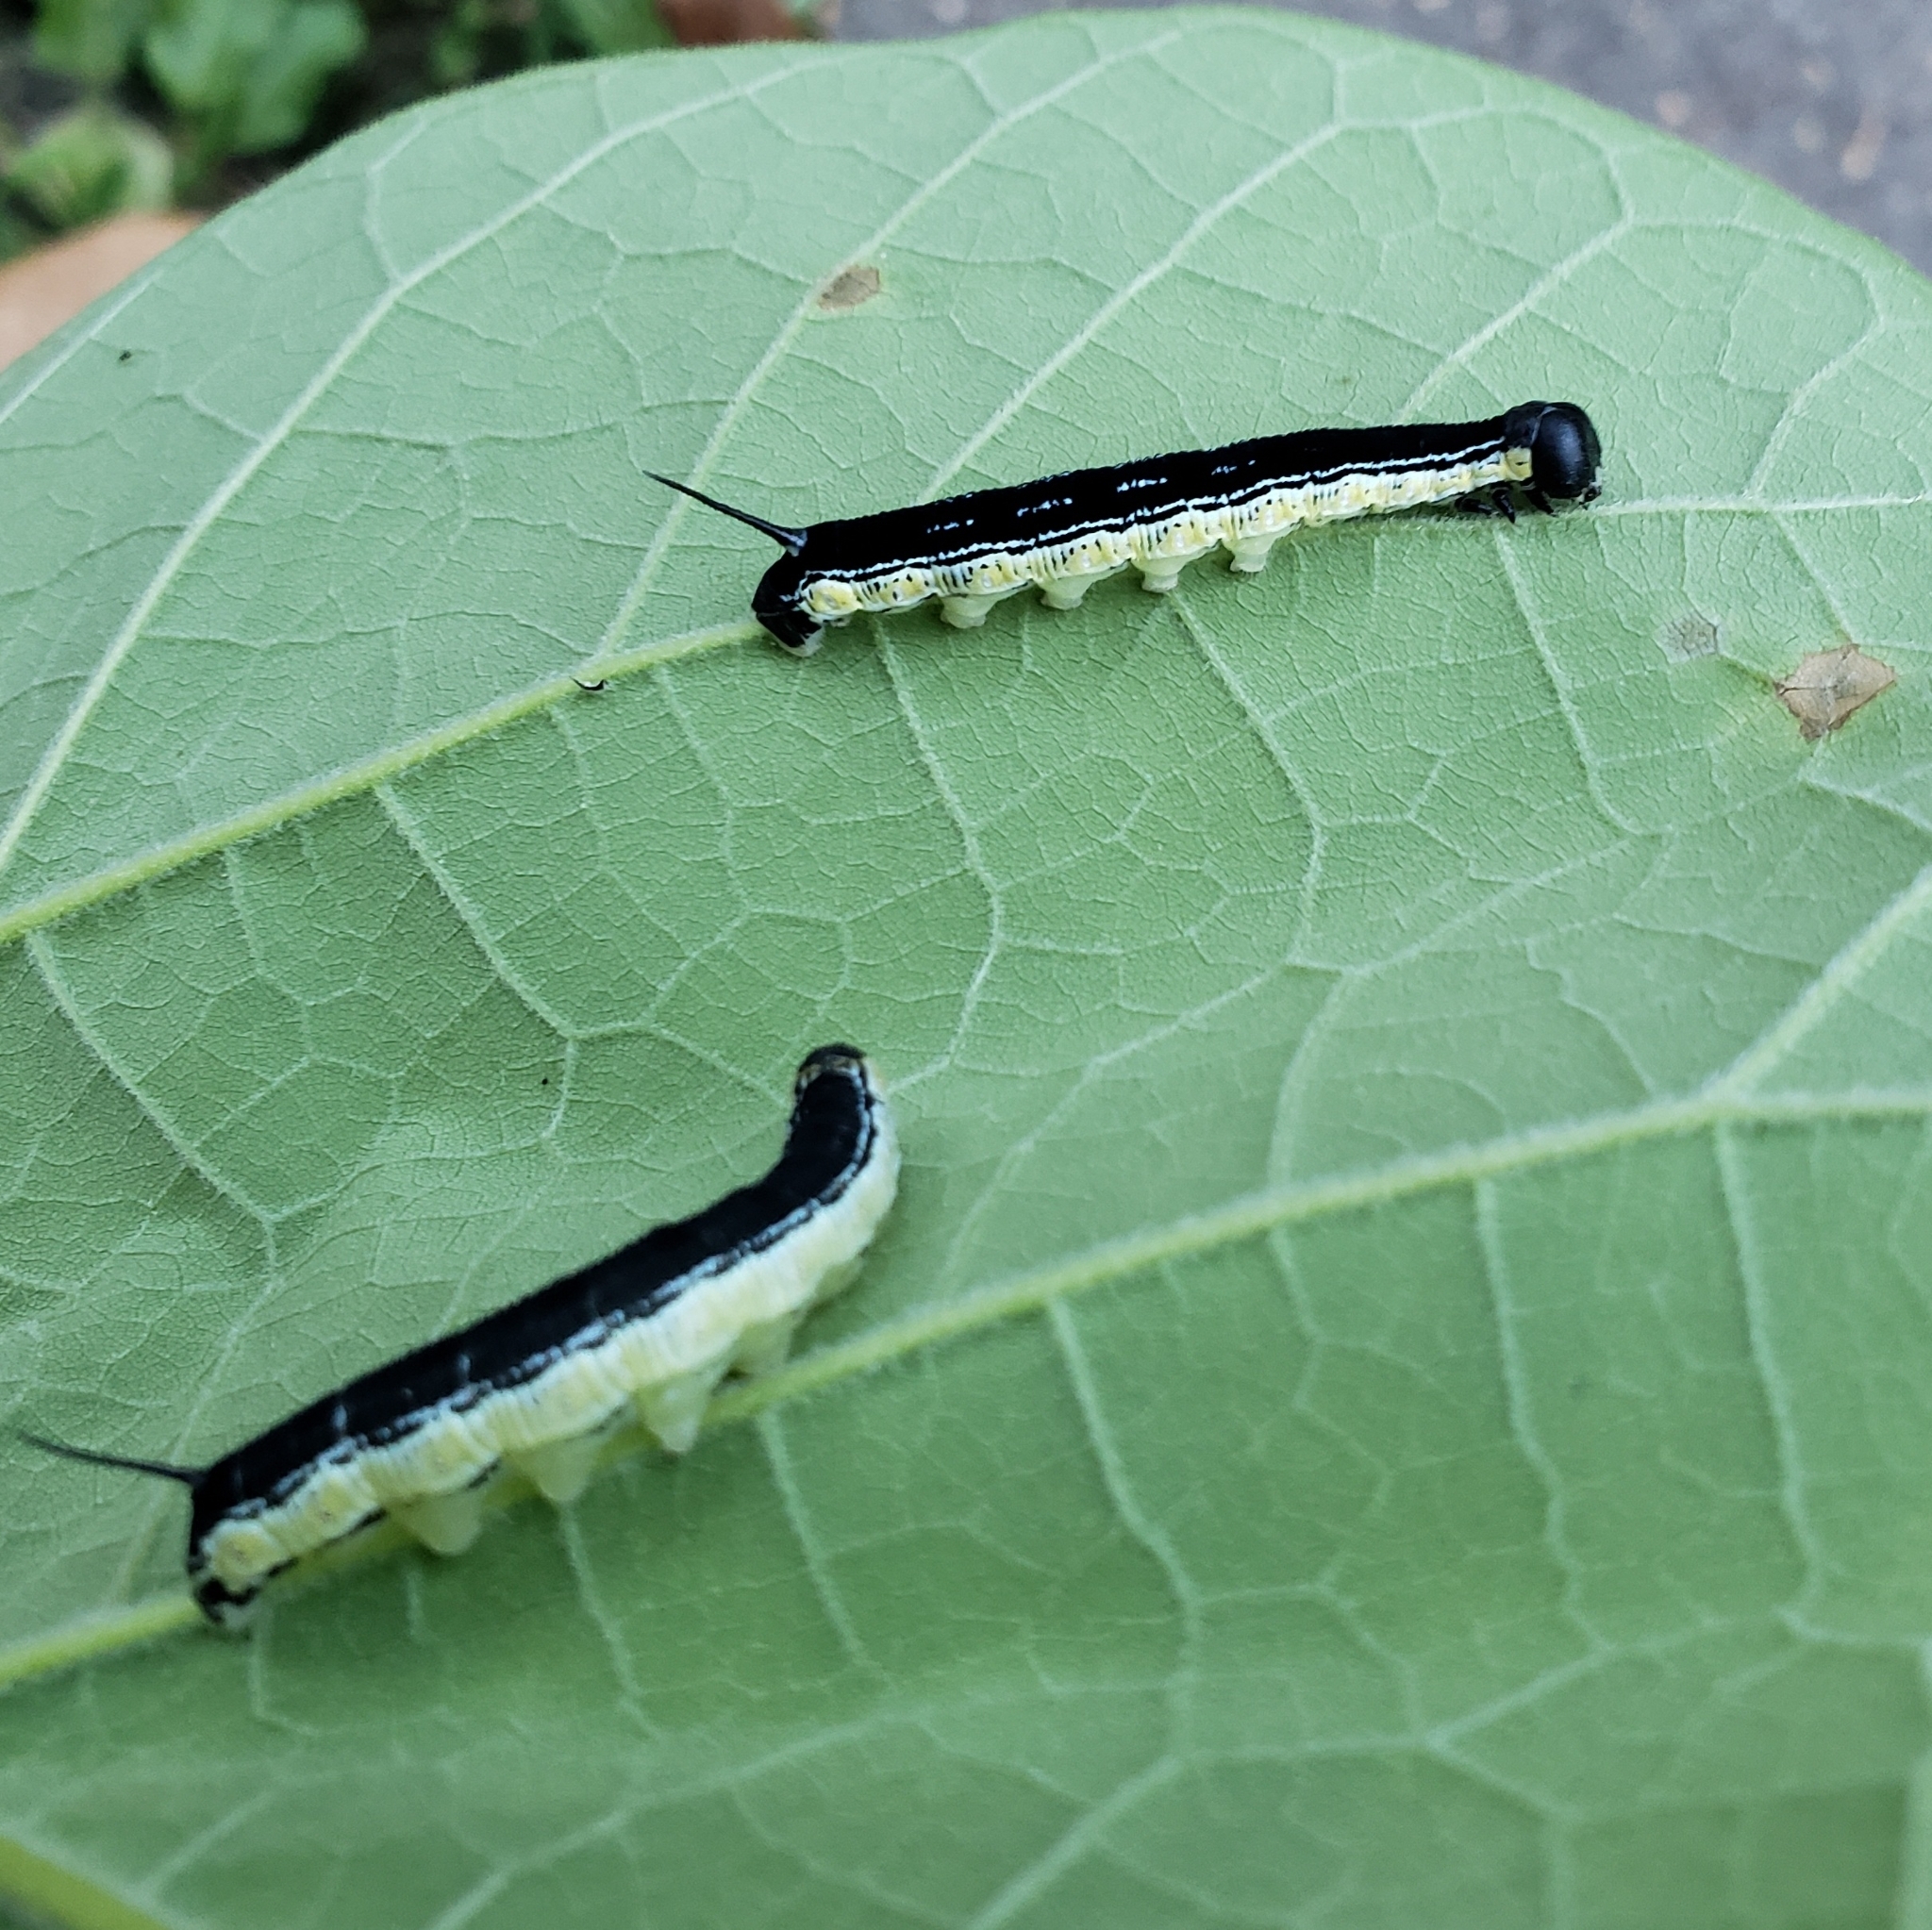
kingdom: Animalia
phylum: Arthropoda
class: Insecta
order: Lepidoptera
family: Sphingidae
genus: Ceratomia
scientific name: Ceratomia catalpae
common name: Catalpa hornworm
